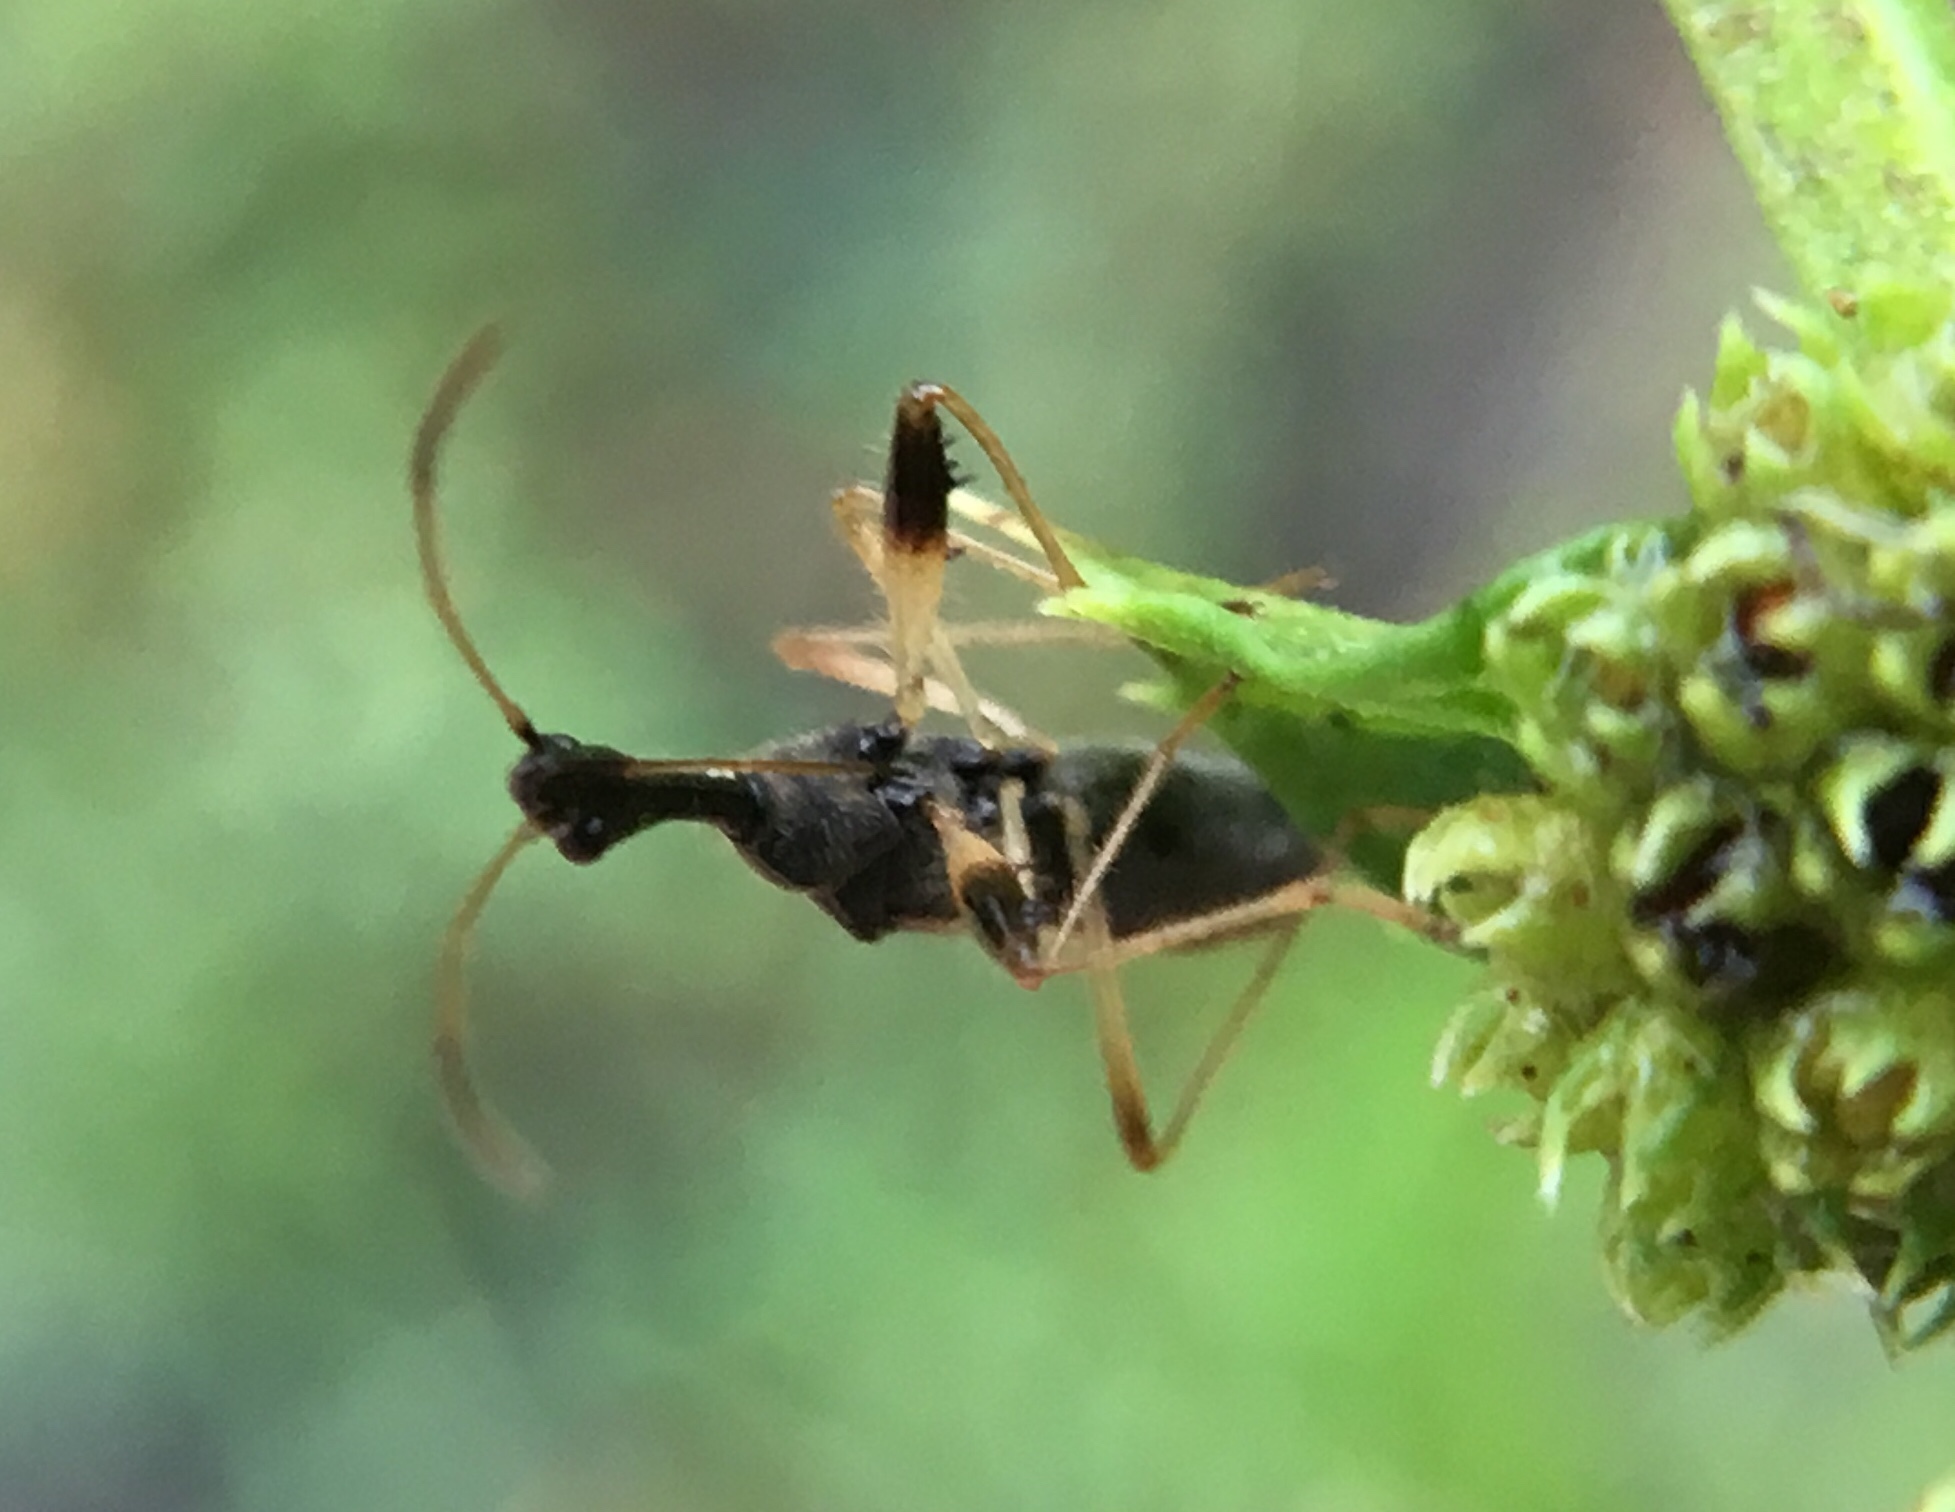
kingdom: Animalia
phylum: Arthropoda
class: Insecta
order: Hemiptera
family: Rhyparochromidae
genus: Myodocha
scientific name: Myodocha serripes
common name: Long-necked seed bug
